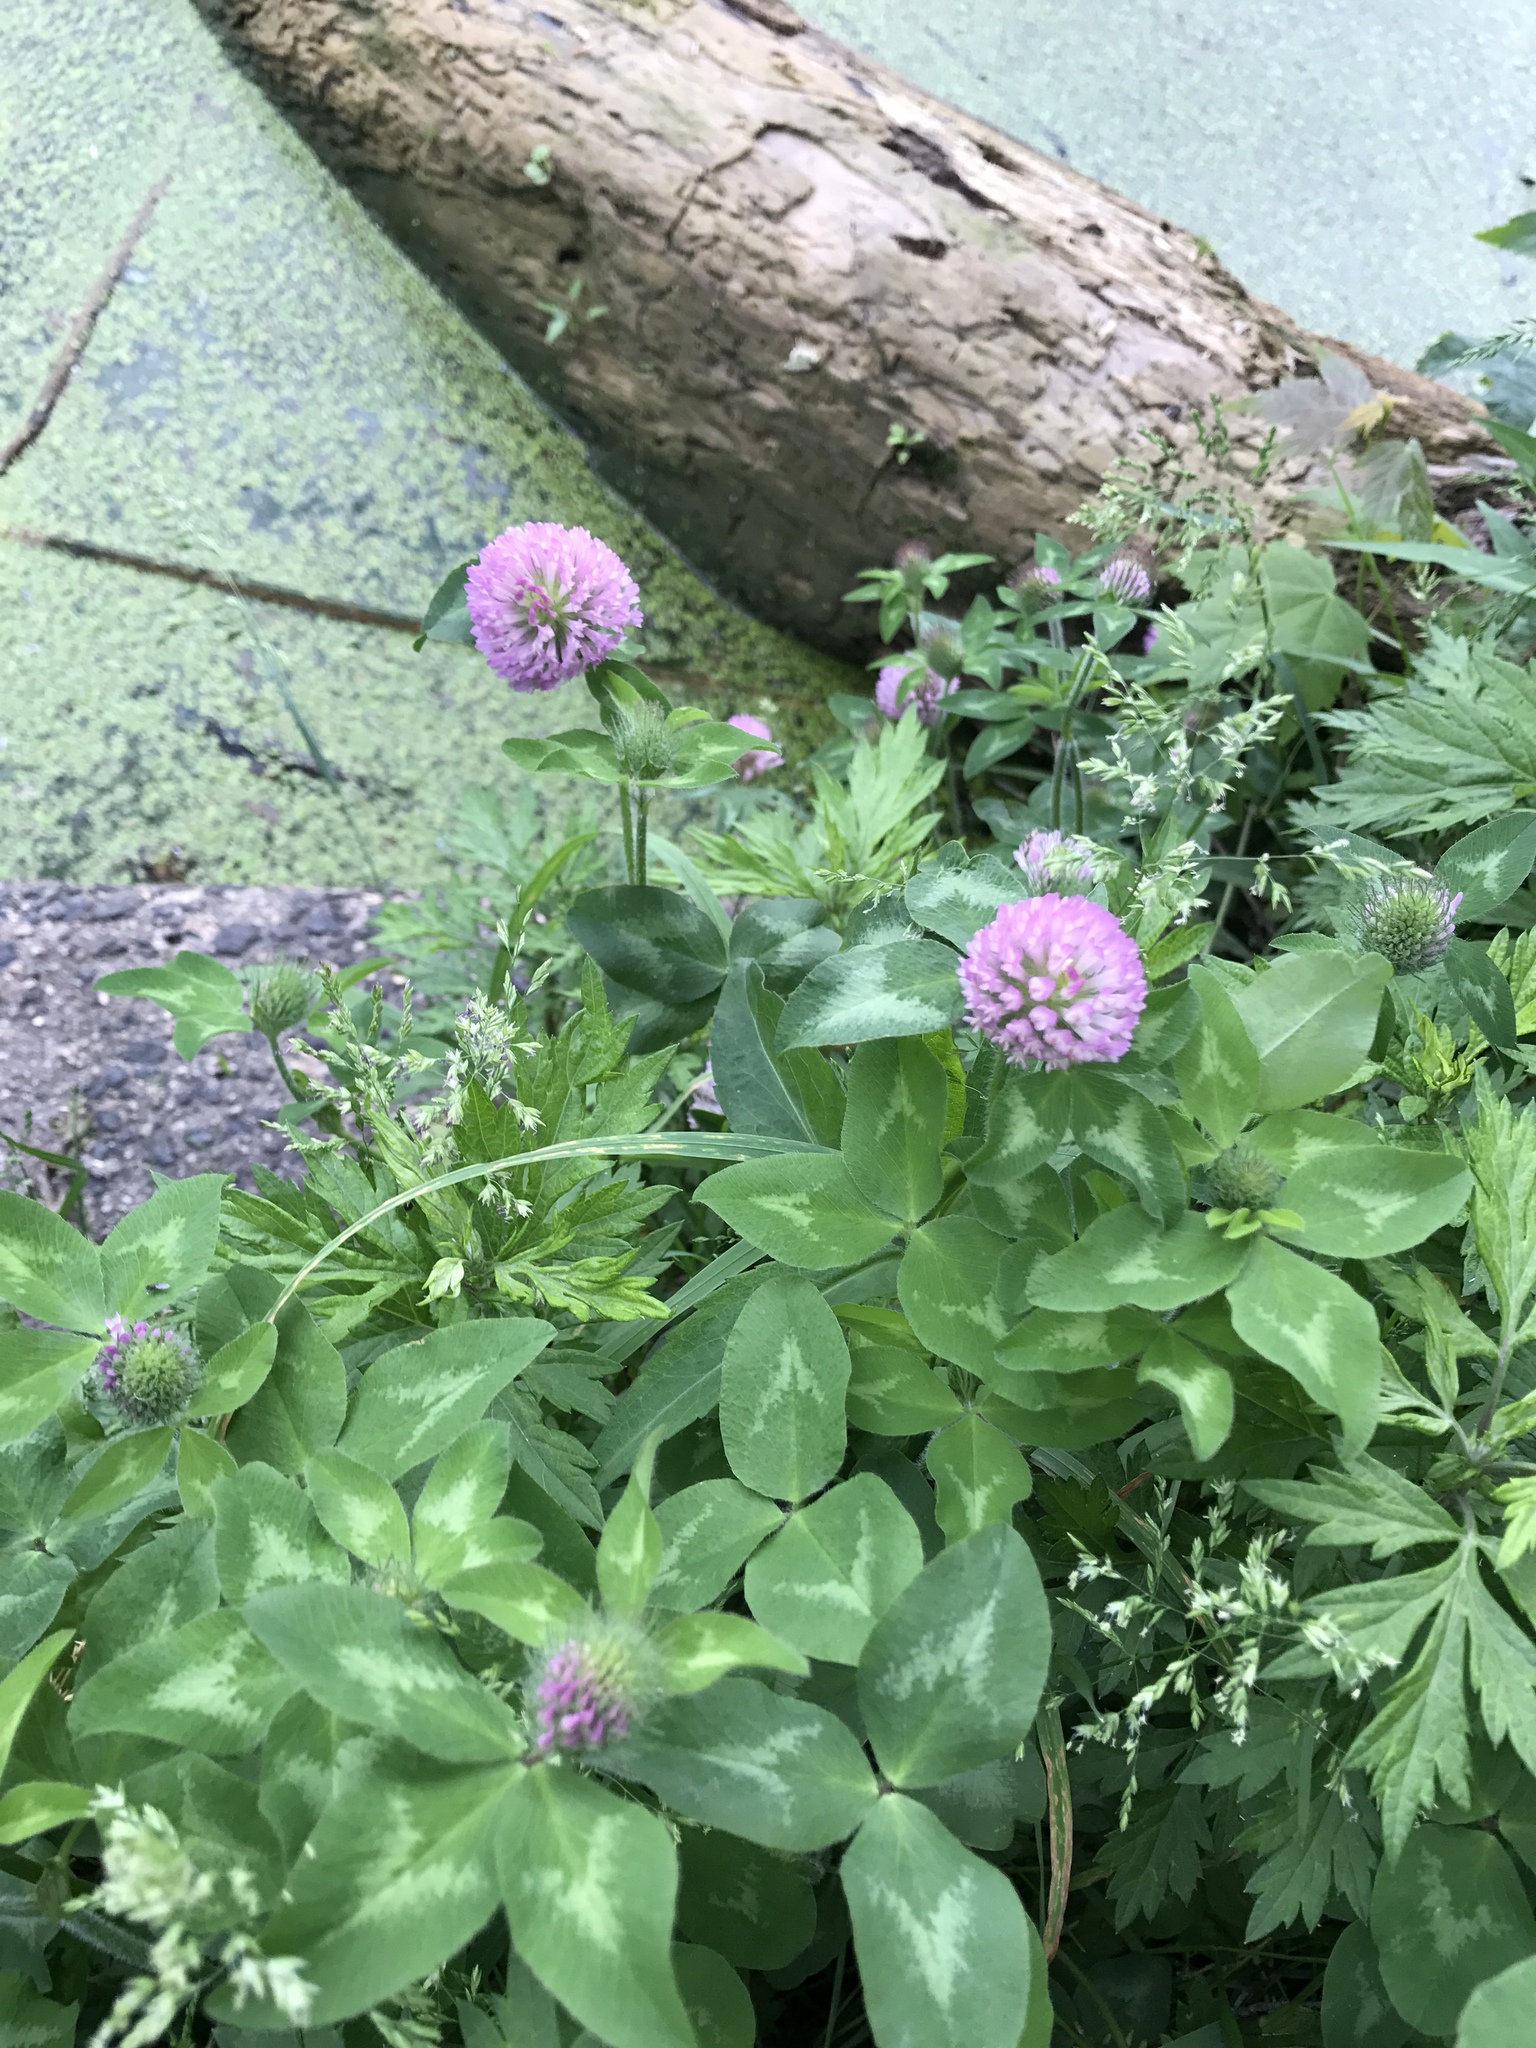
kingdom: Plantae
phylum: Tracheophyta
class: Magnoliopsida
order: Fabales
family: Fabaceae
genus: Trifolium
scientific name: Trifolium pratense
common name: Red clover
